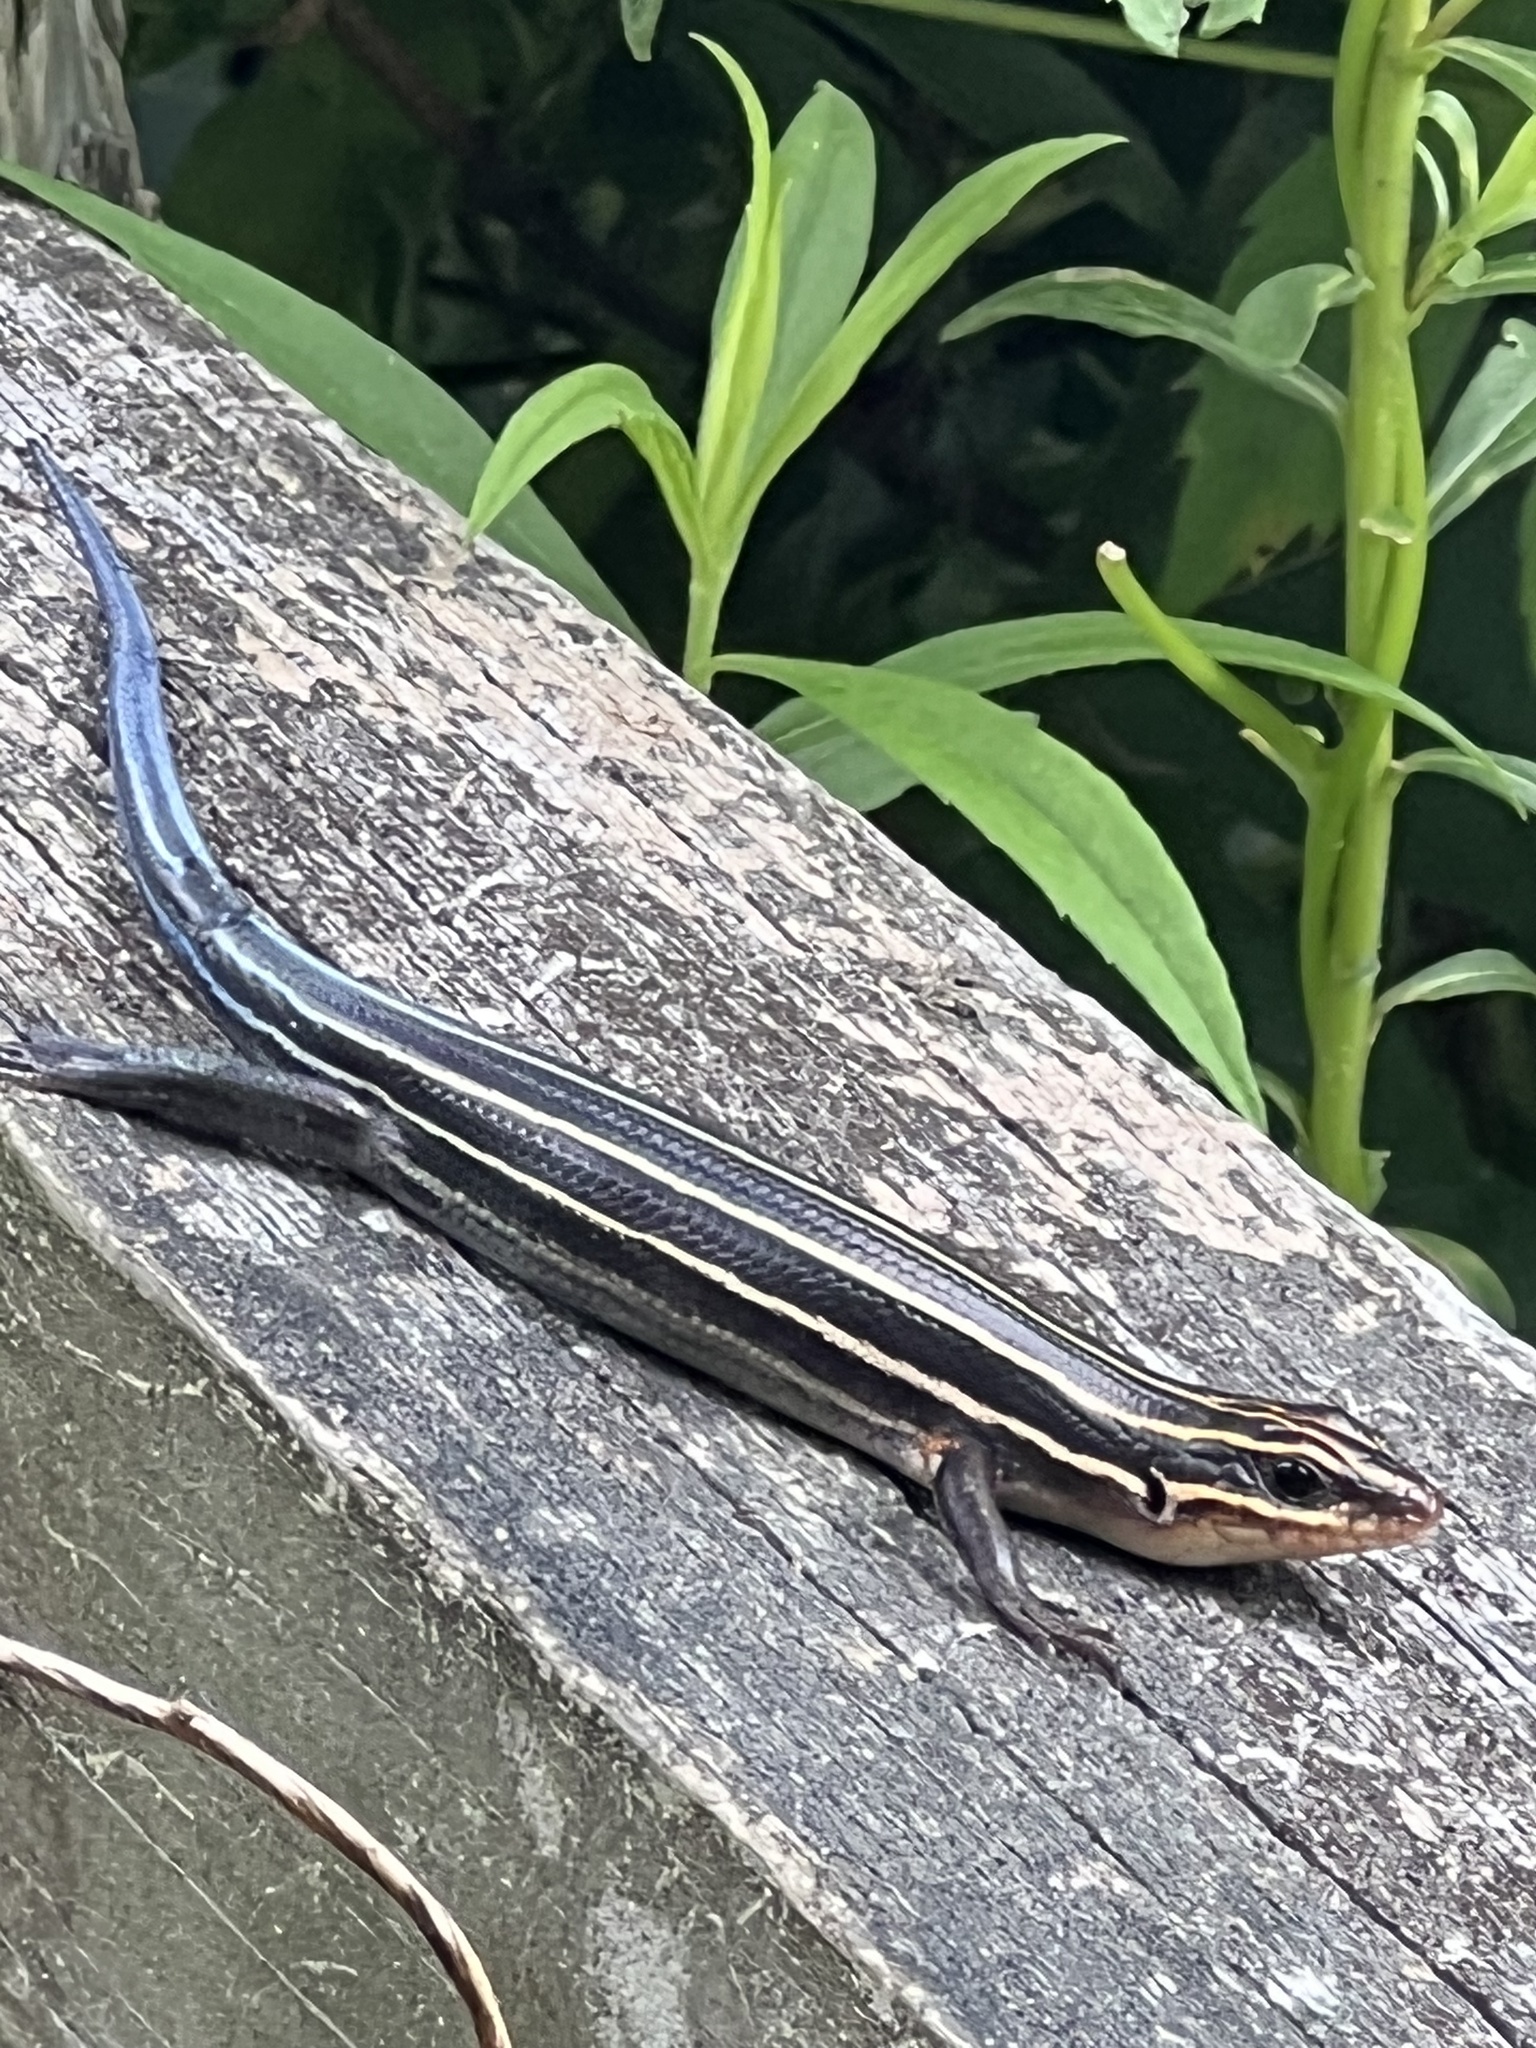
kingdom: Animalia
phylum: Chordata
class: Squamata
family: Scincidae
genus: Plestiodon
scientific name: Plestiodon laticeps
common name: Broadhead skink
